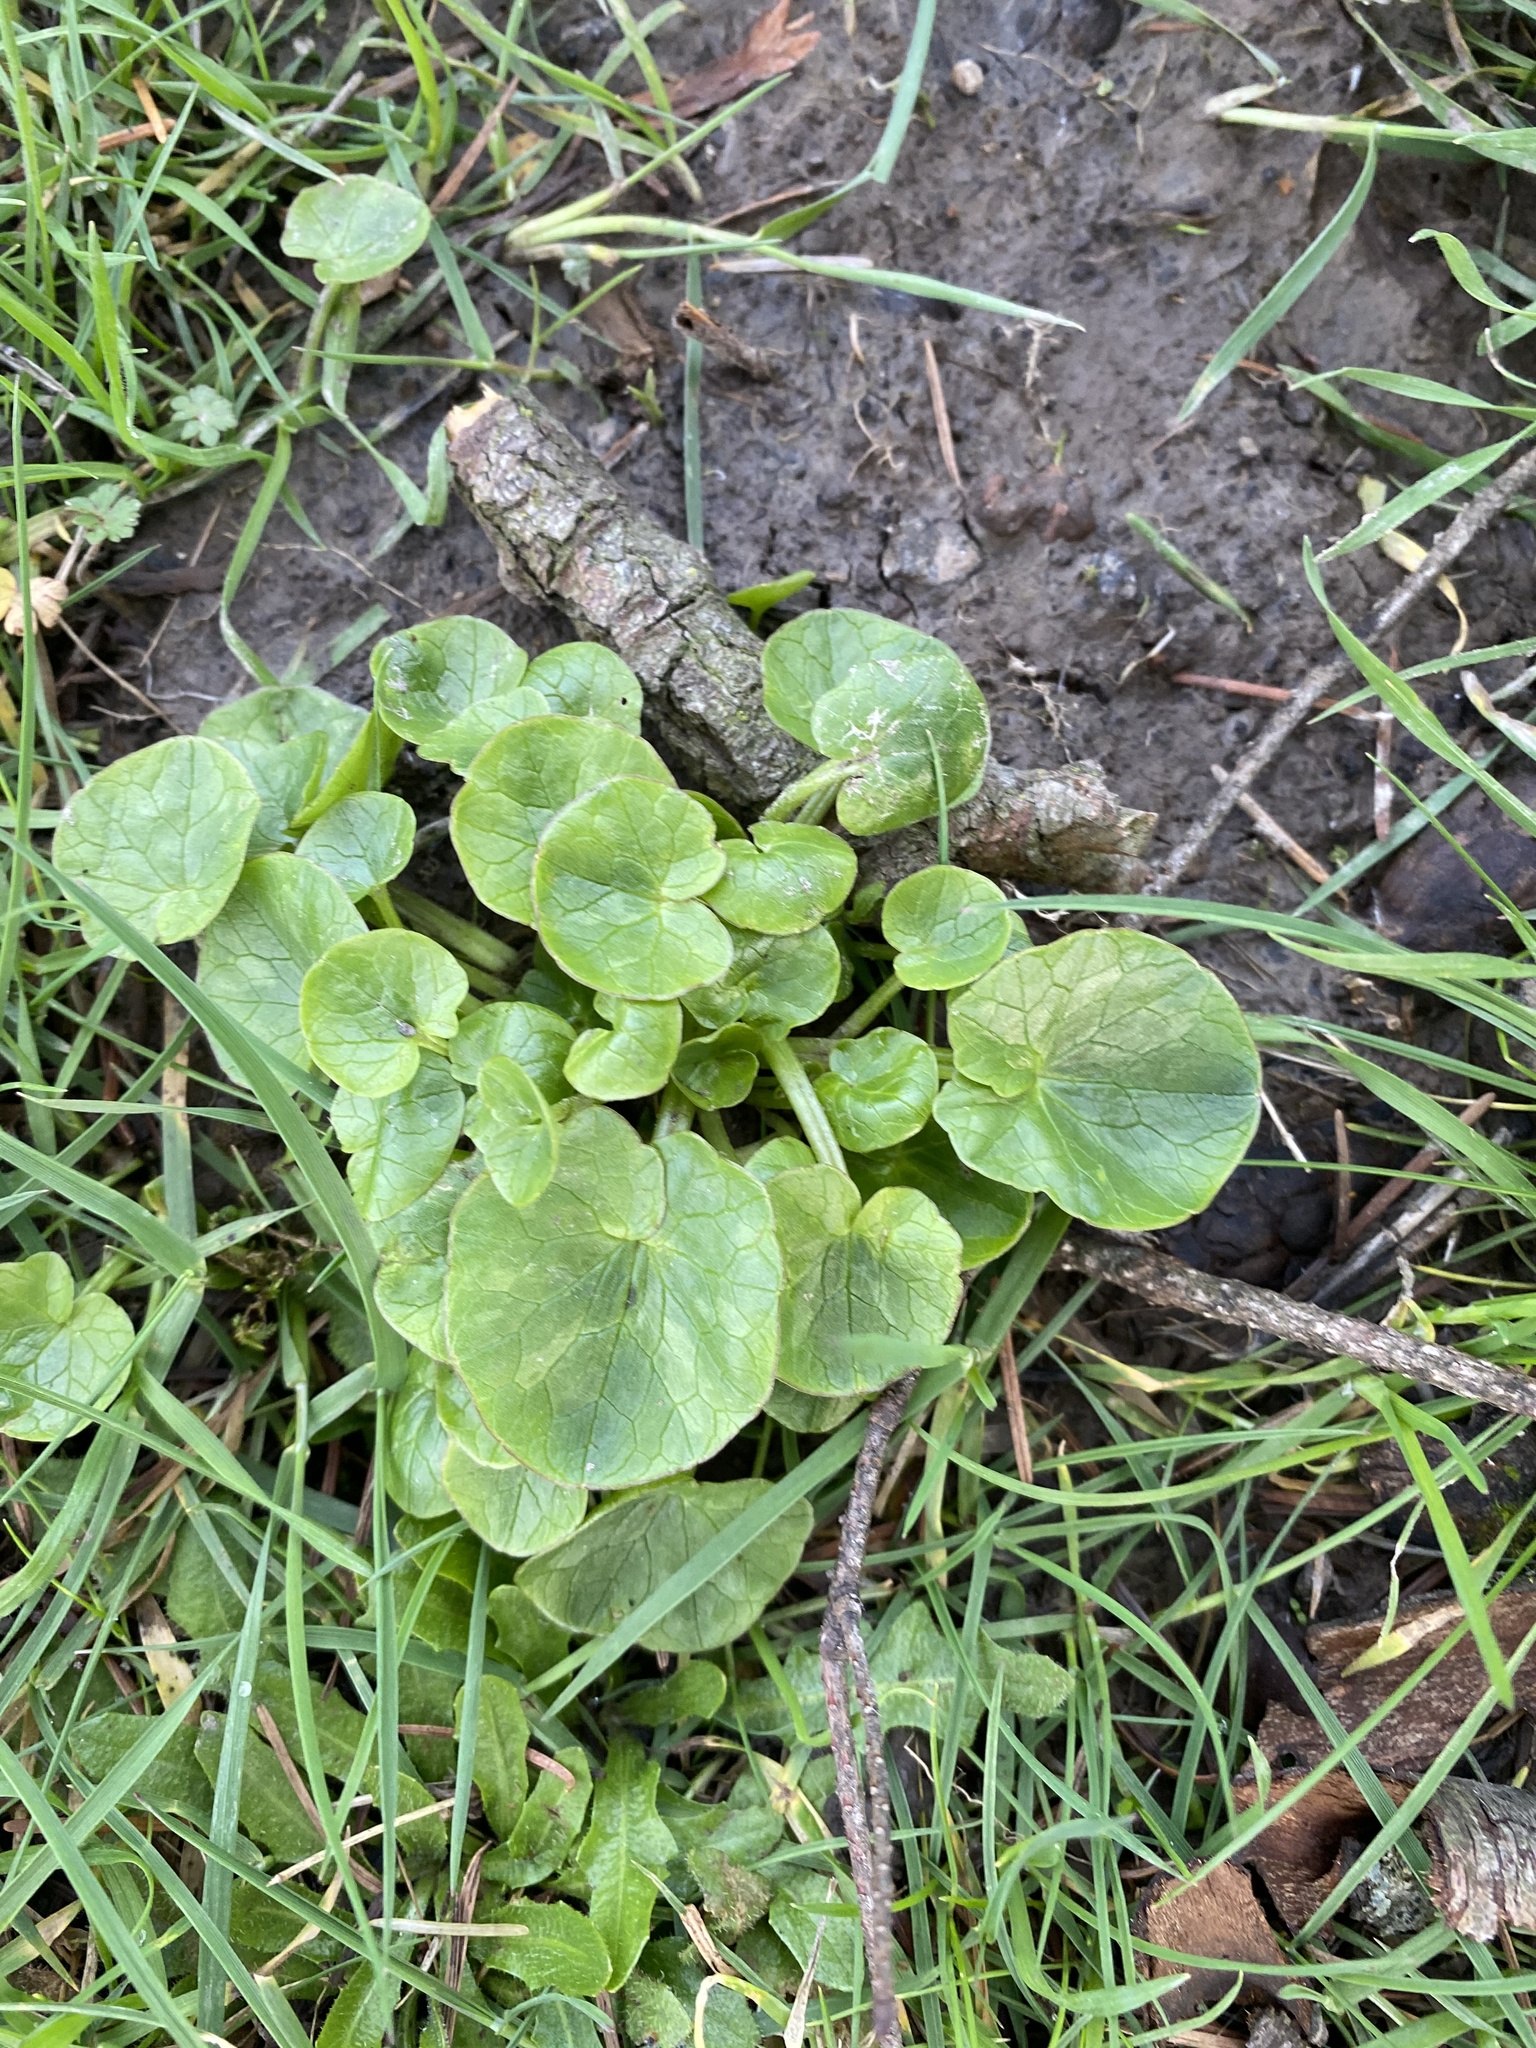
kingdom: Plantae
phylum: Tracheophyta
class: Magnoliopsida
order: Ranunculales
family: Ranunculaceae
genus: Ficaria
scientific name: Ficaria verna
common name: Lesser celandine
